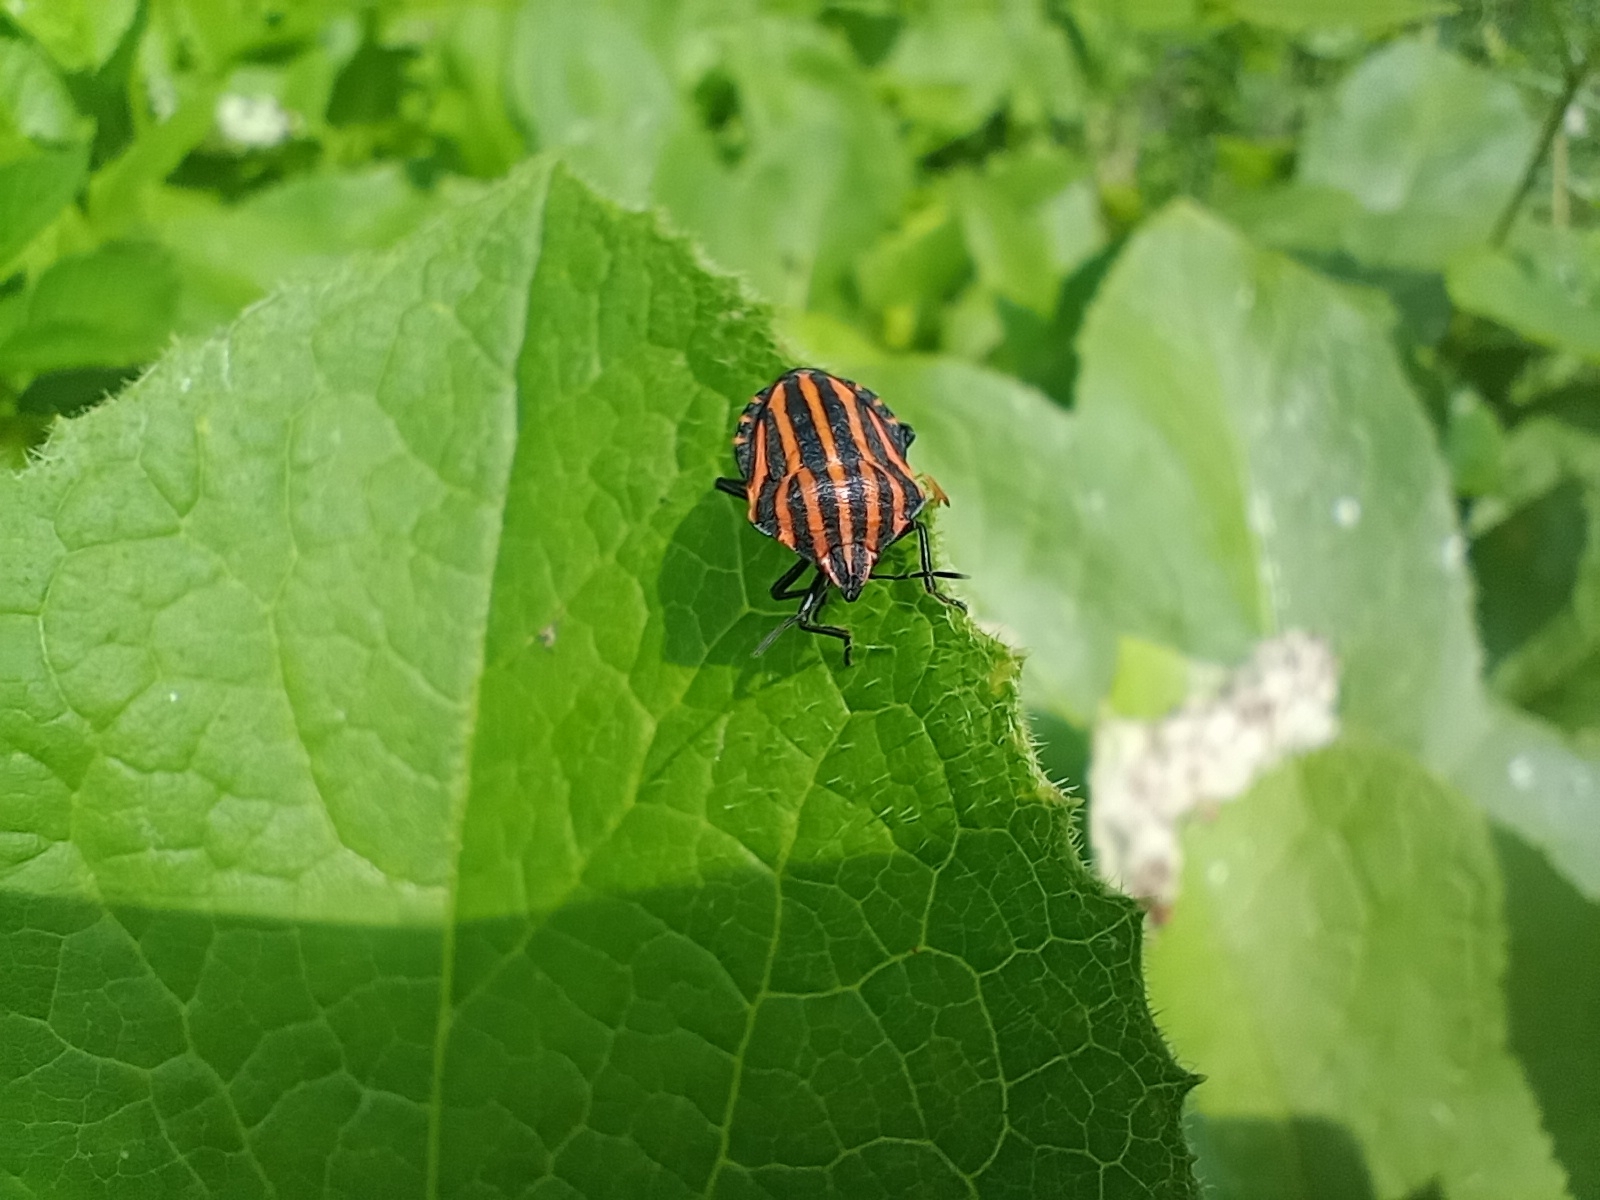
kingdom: Animalia
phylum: Arthropoda
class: Insecta
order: Hemiptera
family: Pentatomidae
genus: Graphosoma
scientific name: Graphosoma italicum
